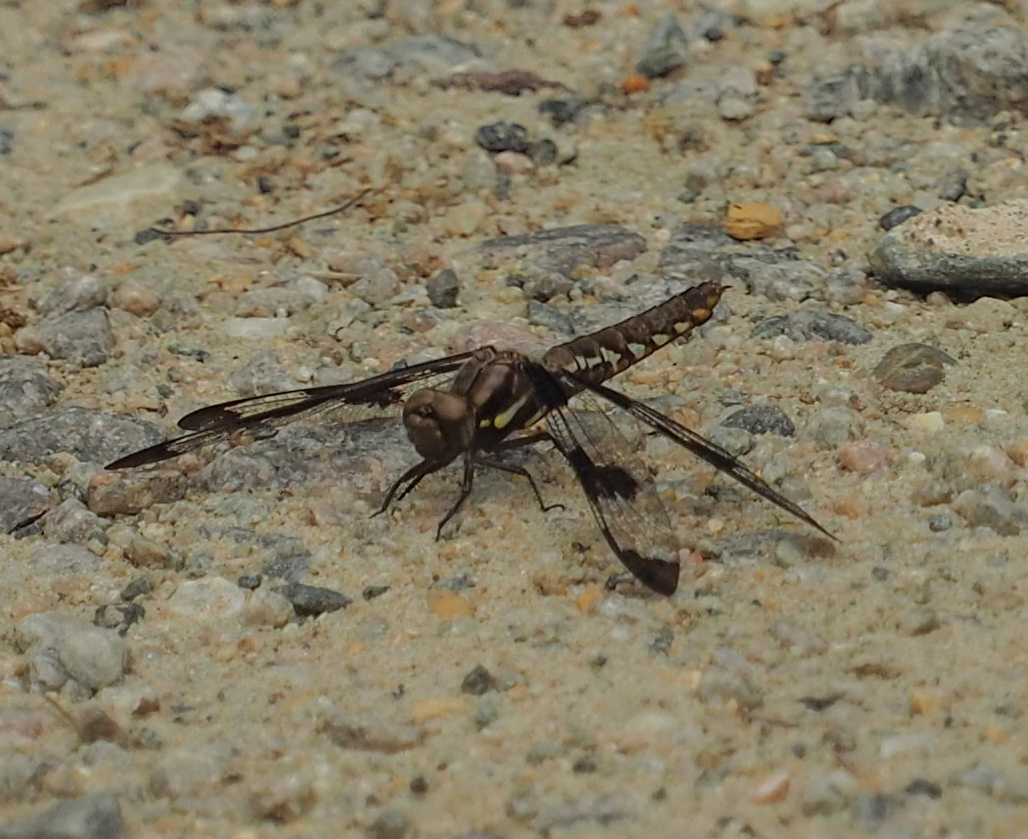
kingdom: Animalia
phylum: Arthropoda
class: Insecta
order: Odonata
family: Libellulidae
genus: Plathemis
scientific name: Plathemis lydia
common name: Common whitetail
